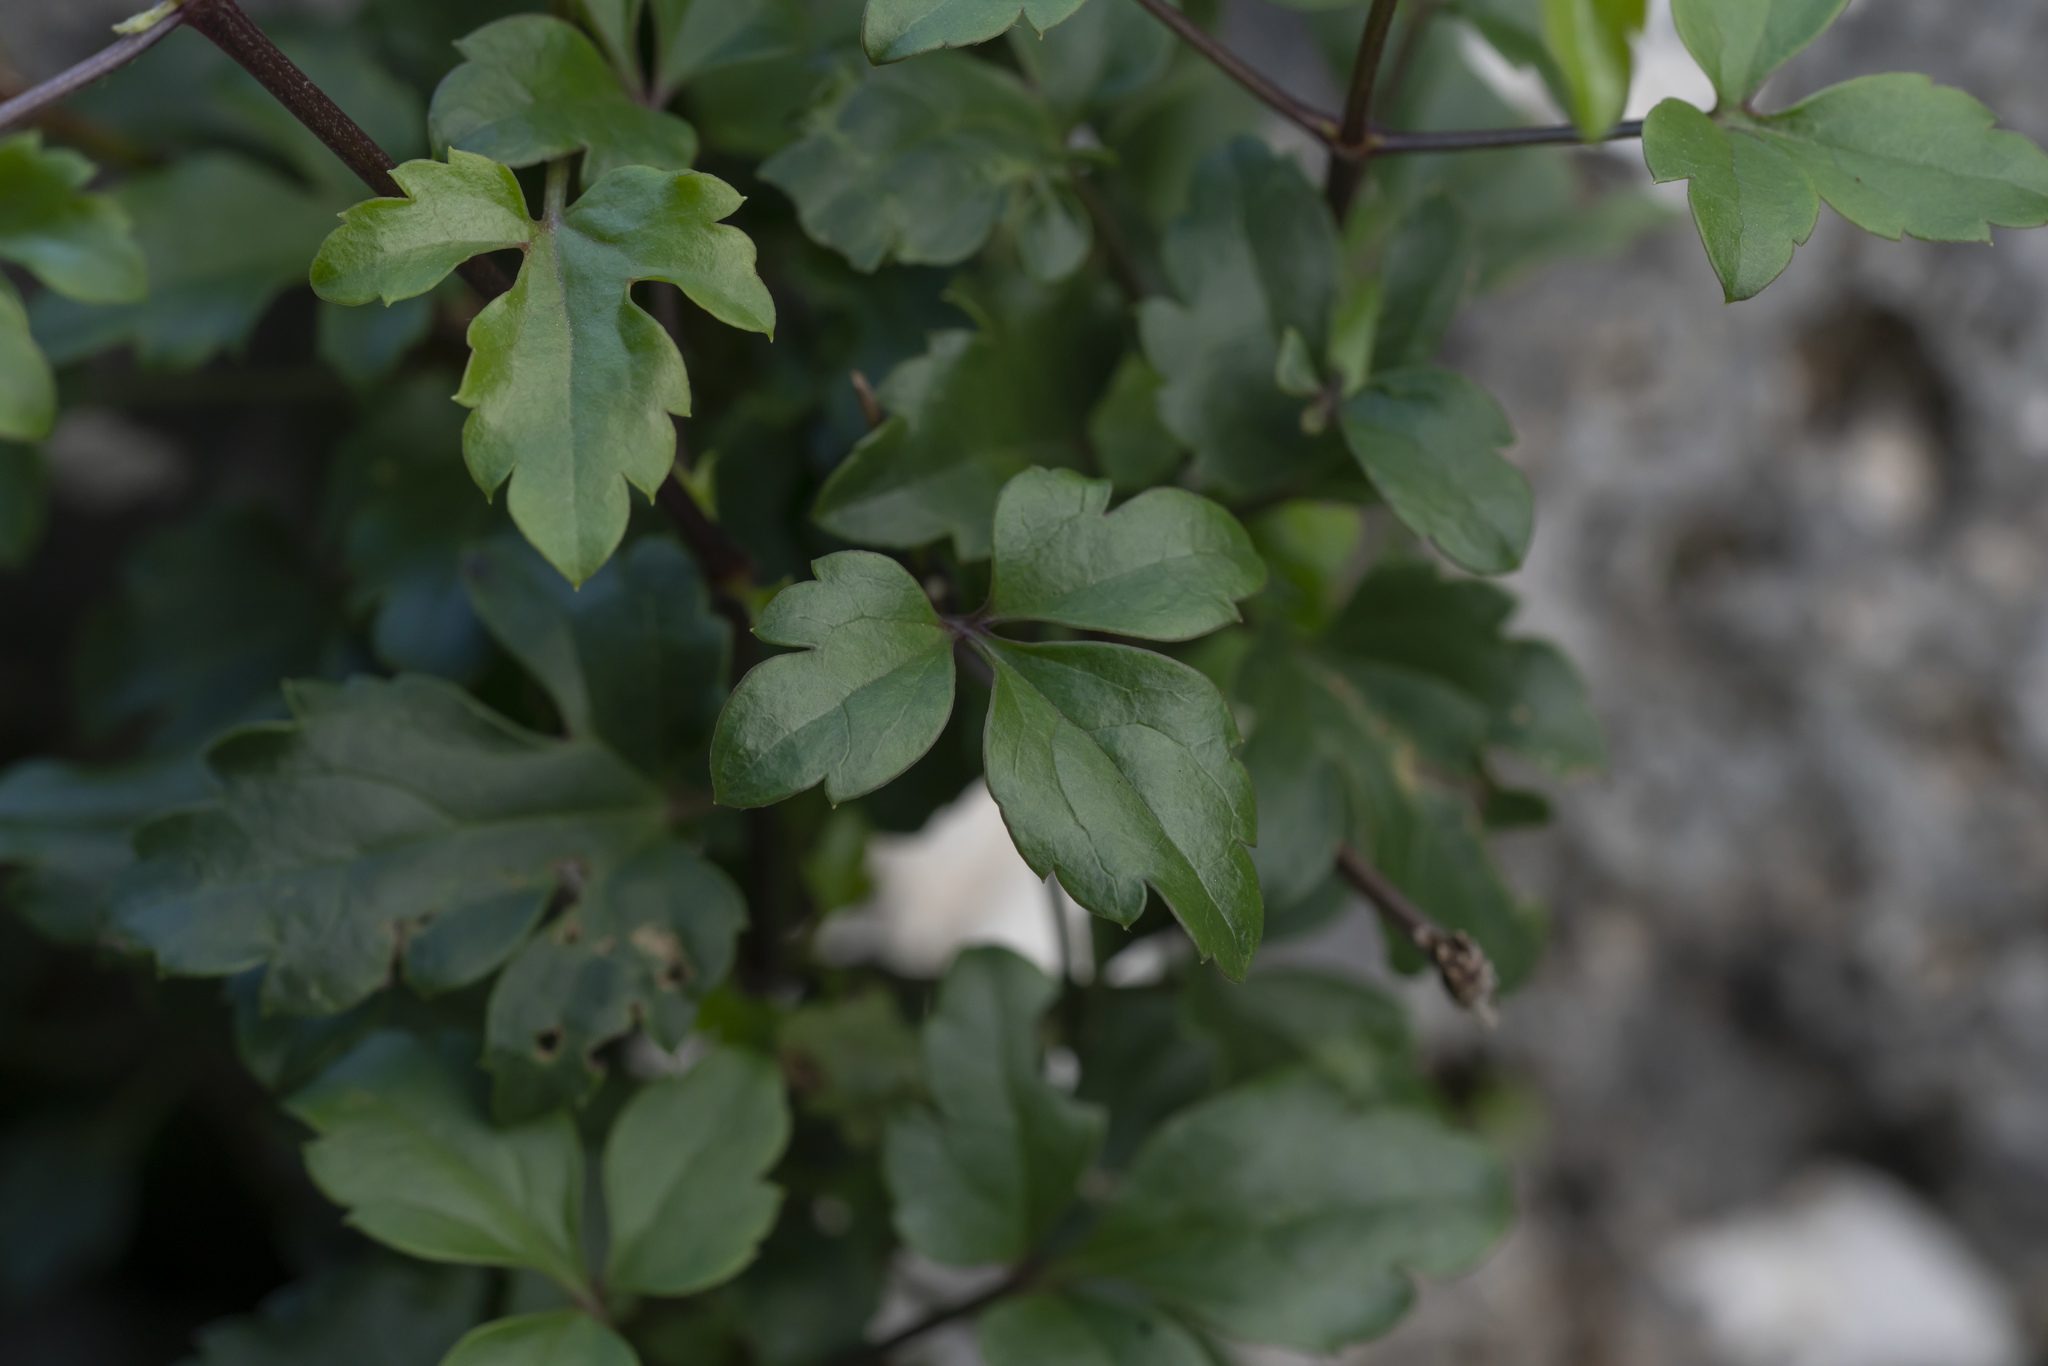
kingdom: Plantae
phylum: Tracheophyta
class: Magnoliopsida
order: Ranunculales
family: Ranunculaceae
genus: Clematis
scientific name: Clematis cirrhosa
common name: Early virgin's-bower
